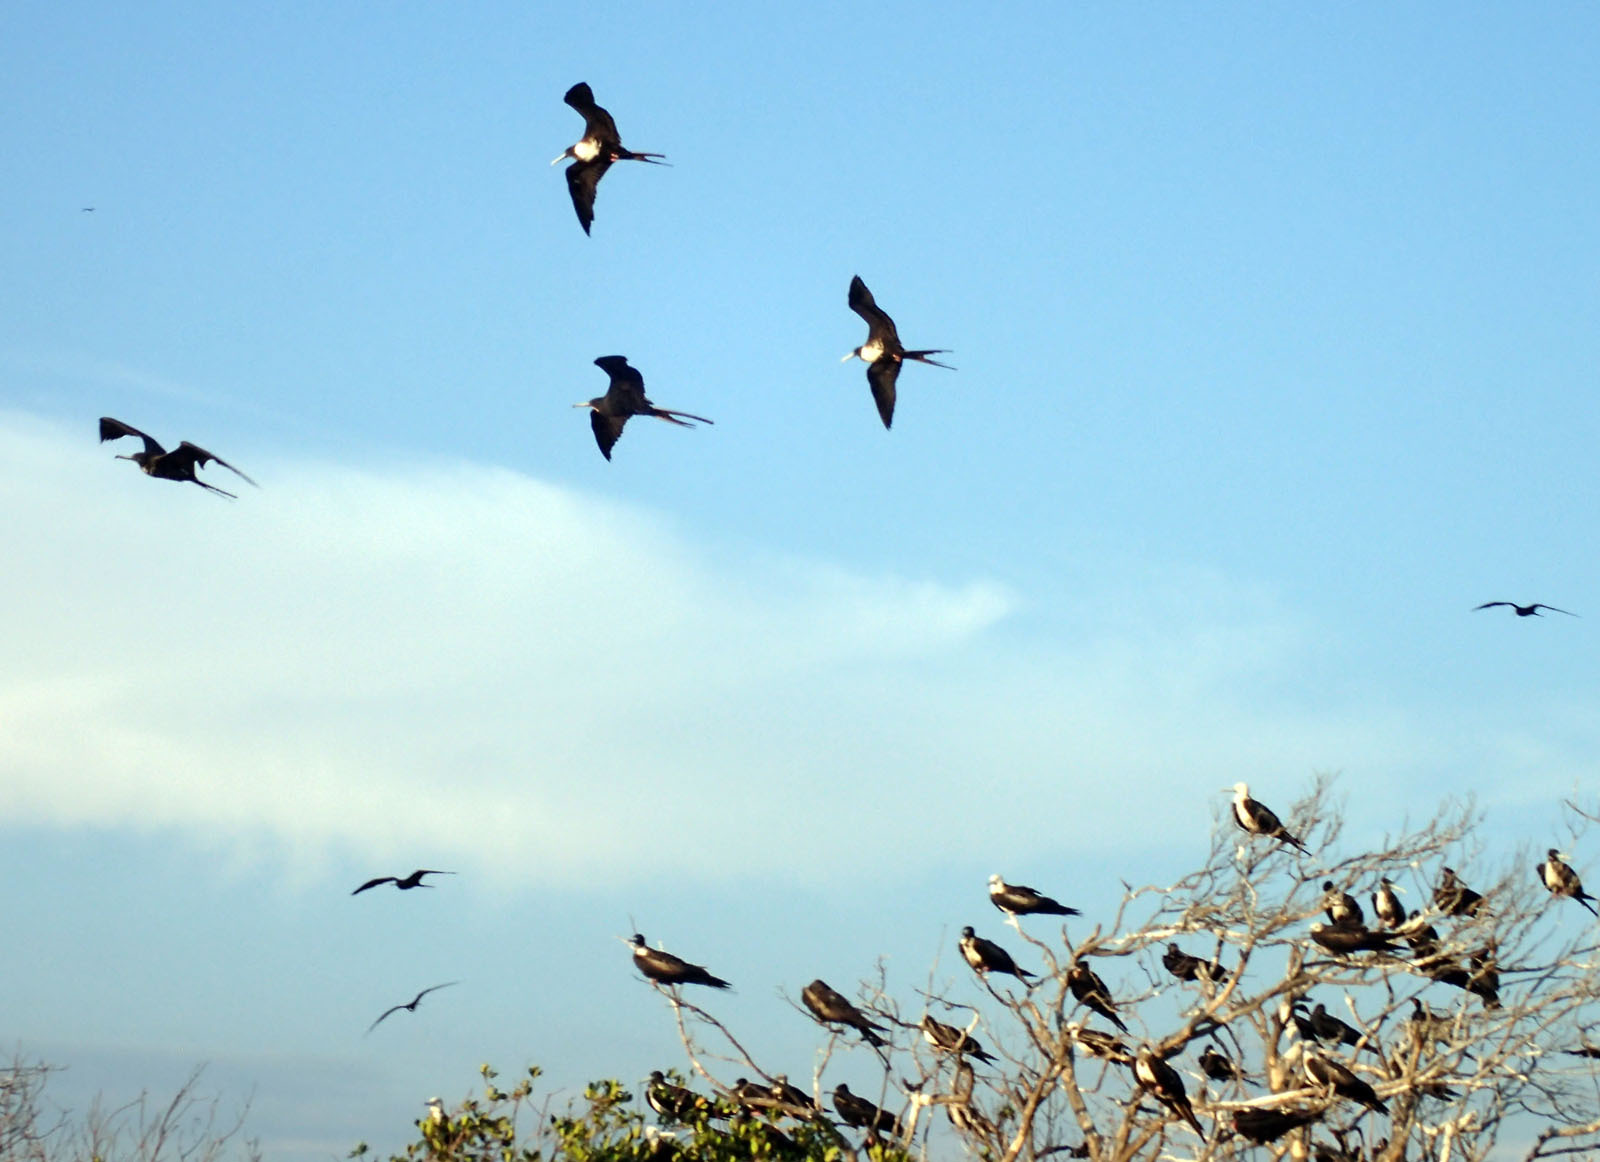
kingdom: Animalia
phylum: Chordata
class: Aves
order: Suliformes
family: Fregatidae
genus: Fregata
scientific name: Fregata magnificens
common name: Magnificent frigatebird
